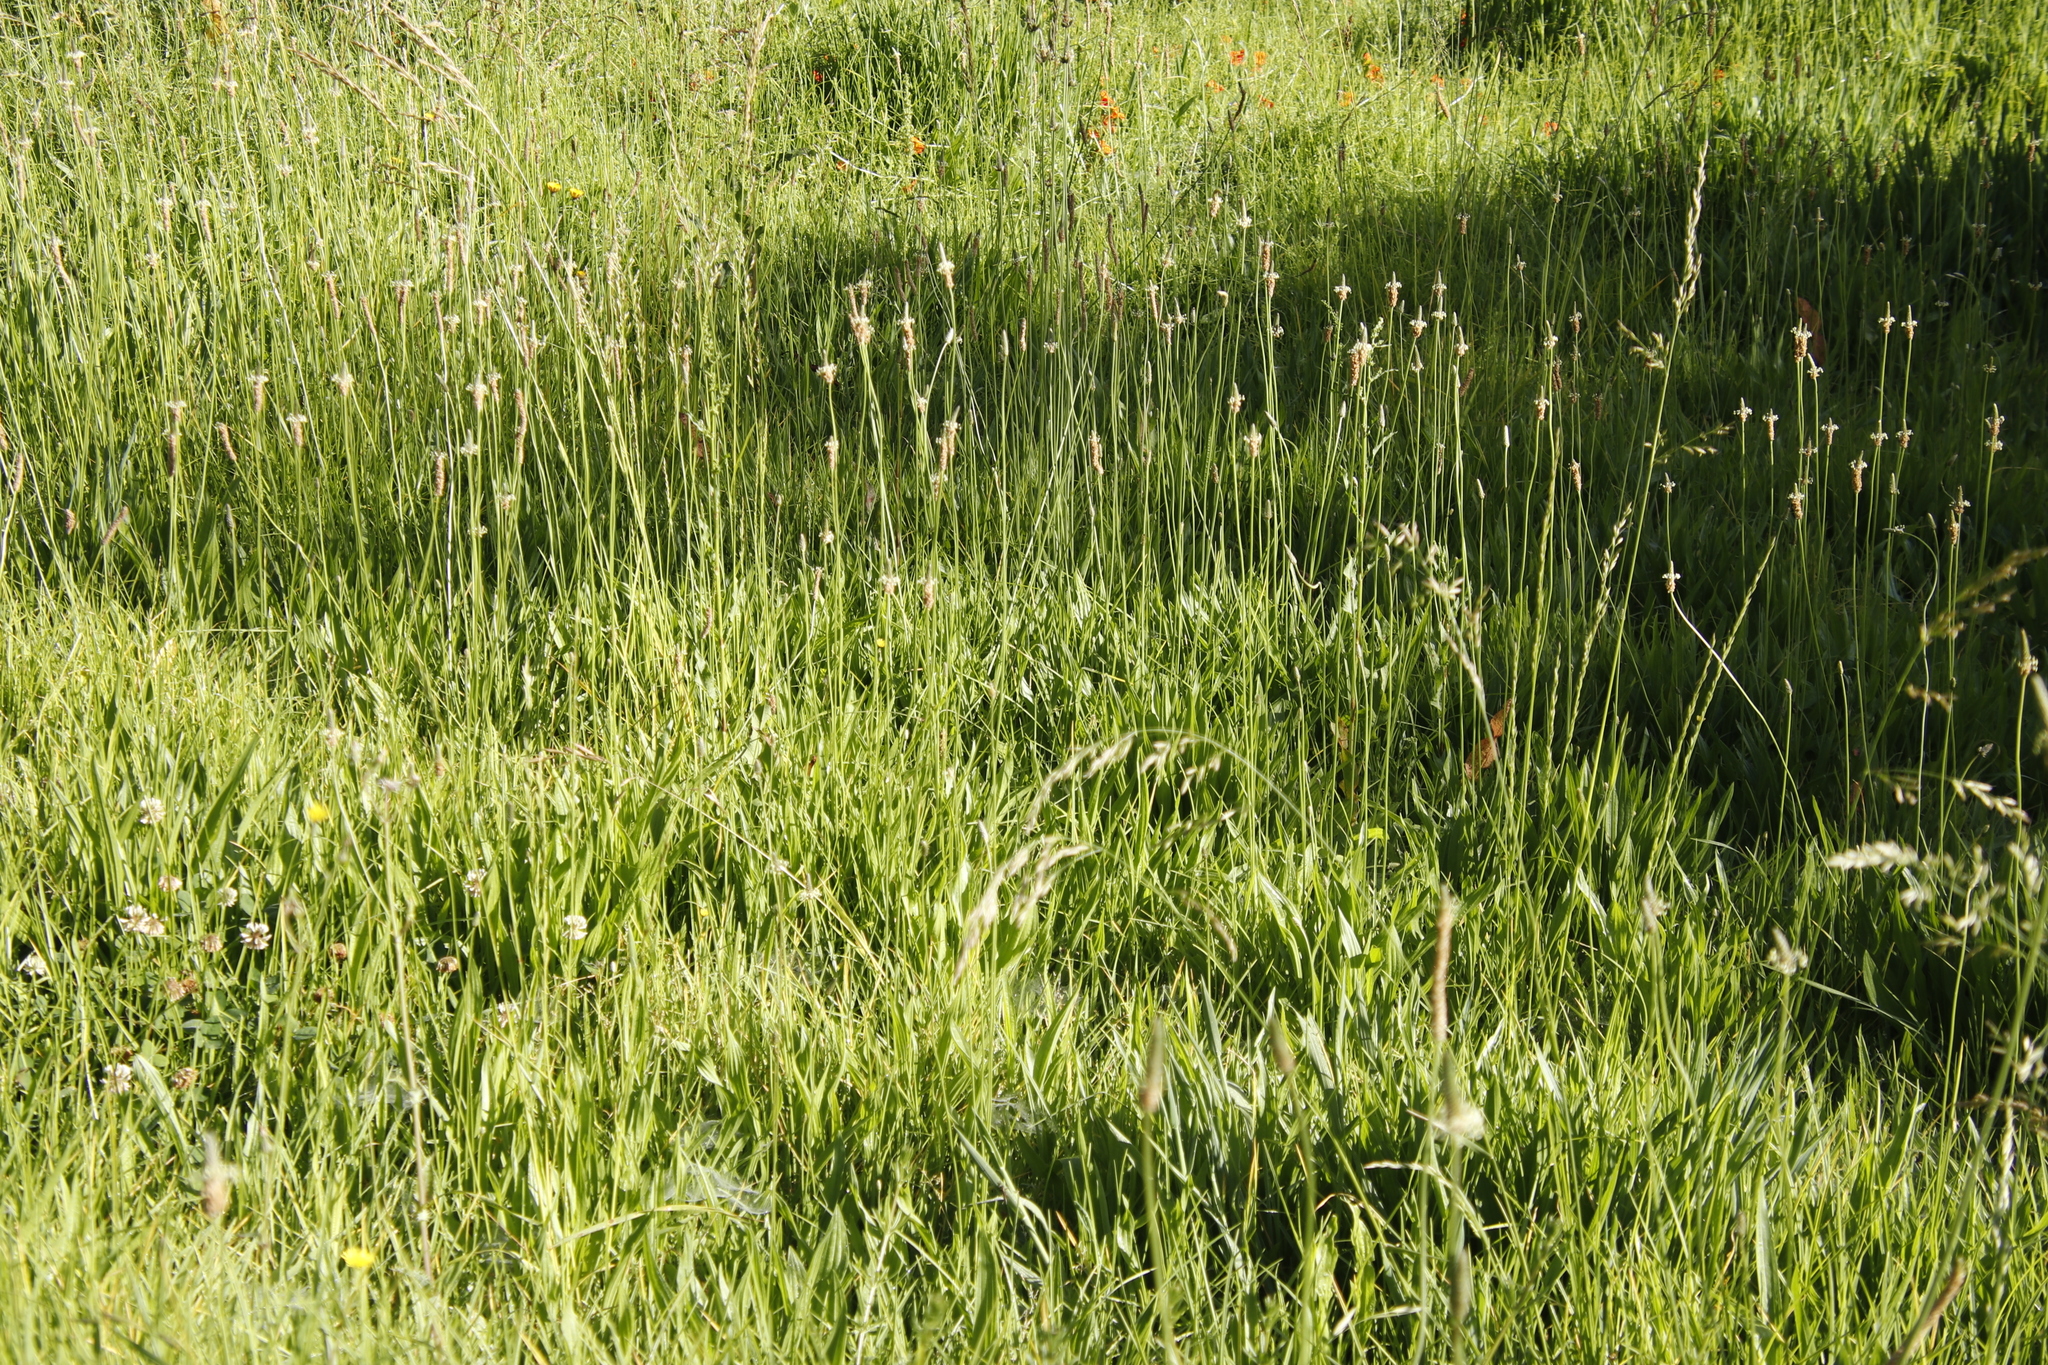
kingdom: Plantae
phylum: Tracheophyta
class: Magnoliopsida
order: Lamiales
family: Plantaginaceae
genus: Plantago
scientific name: Plantago lanceolata
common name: Ribwort plantain
